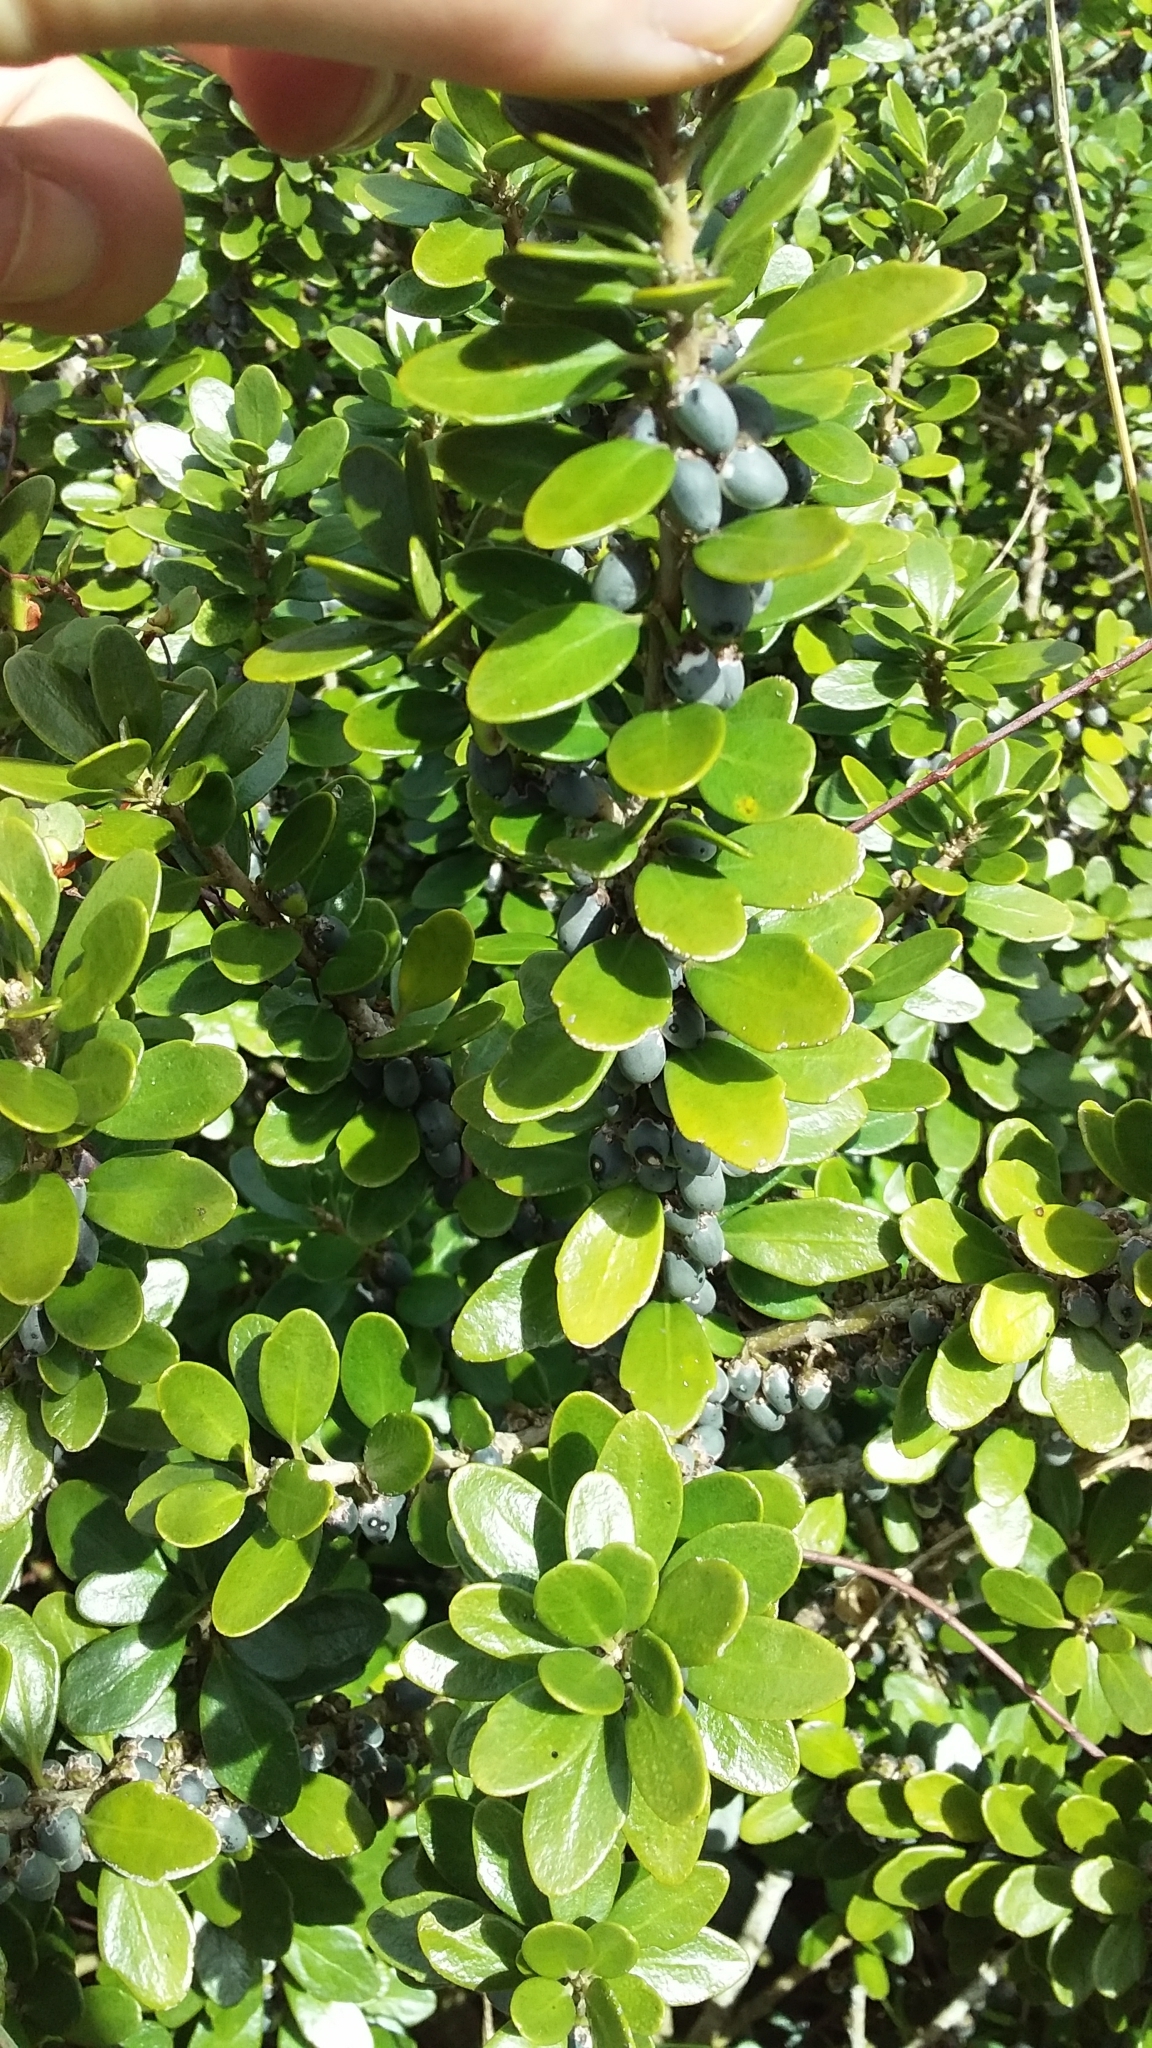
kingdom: Plantae
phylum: Tracheophyta
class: Magnoliopsida
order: Malpighiales
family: Violaceae
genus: Melicytus
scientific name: Melicytus orarius
